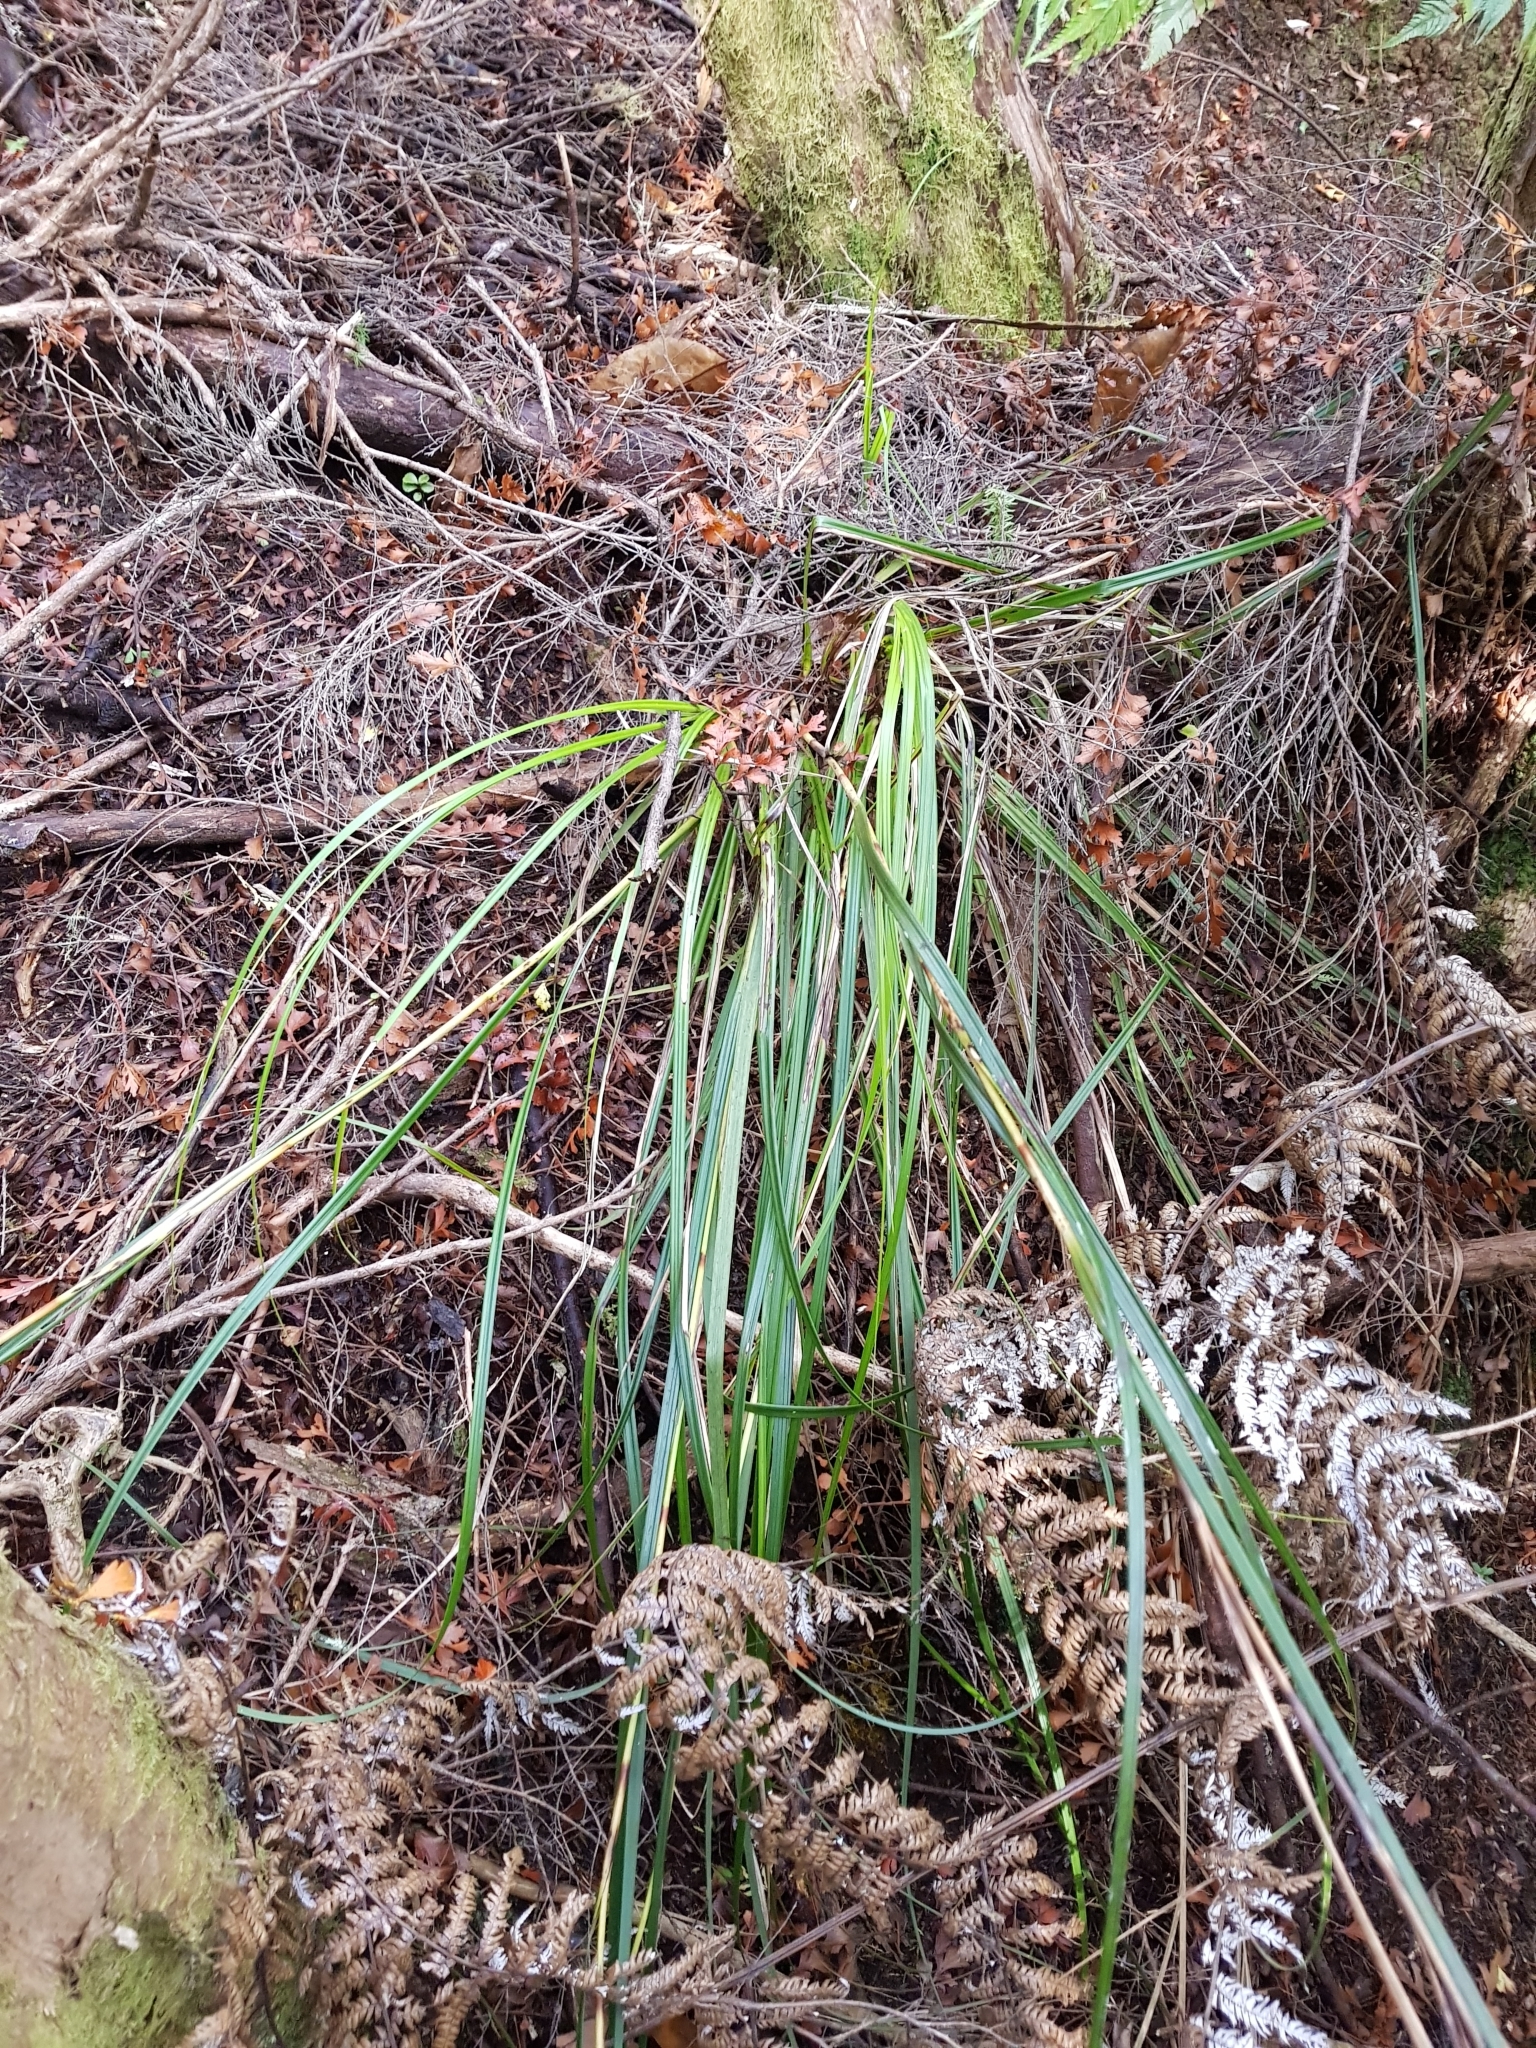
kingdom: Plantae
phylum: Tracheophyta
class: Liliopsida
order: Poales
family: Cyperaceae
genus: Gahnia
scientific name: Gahnia pauciflora
